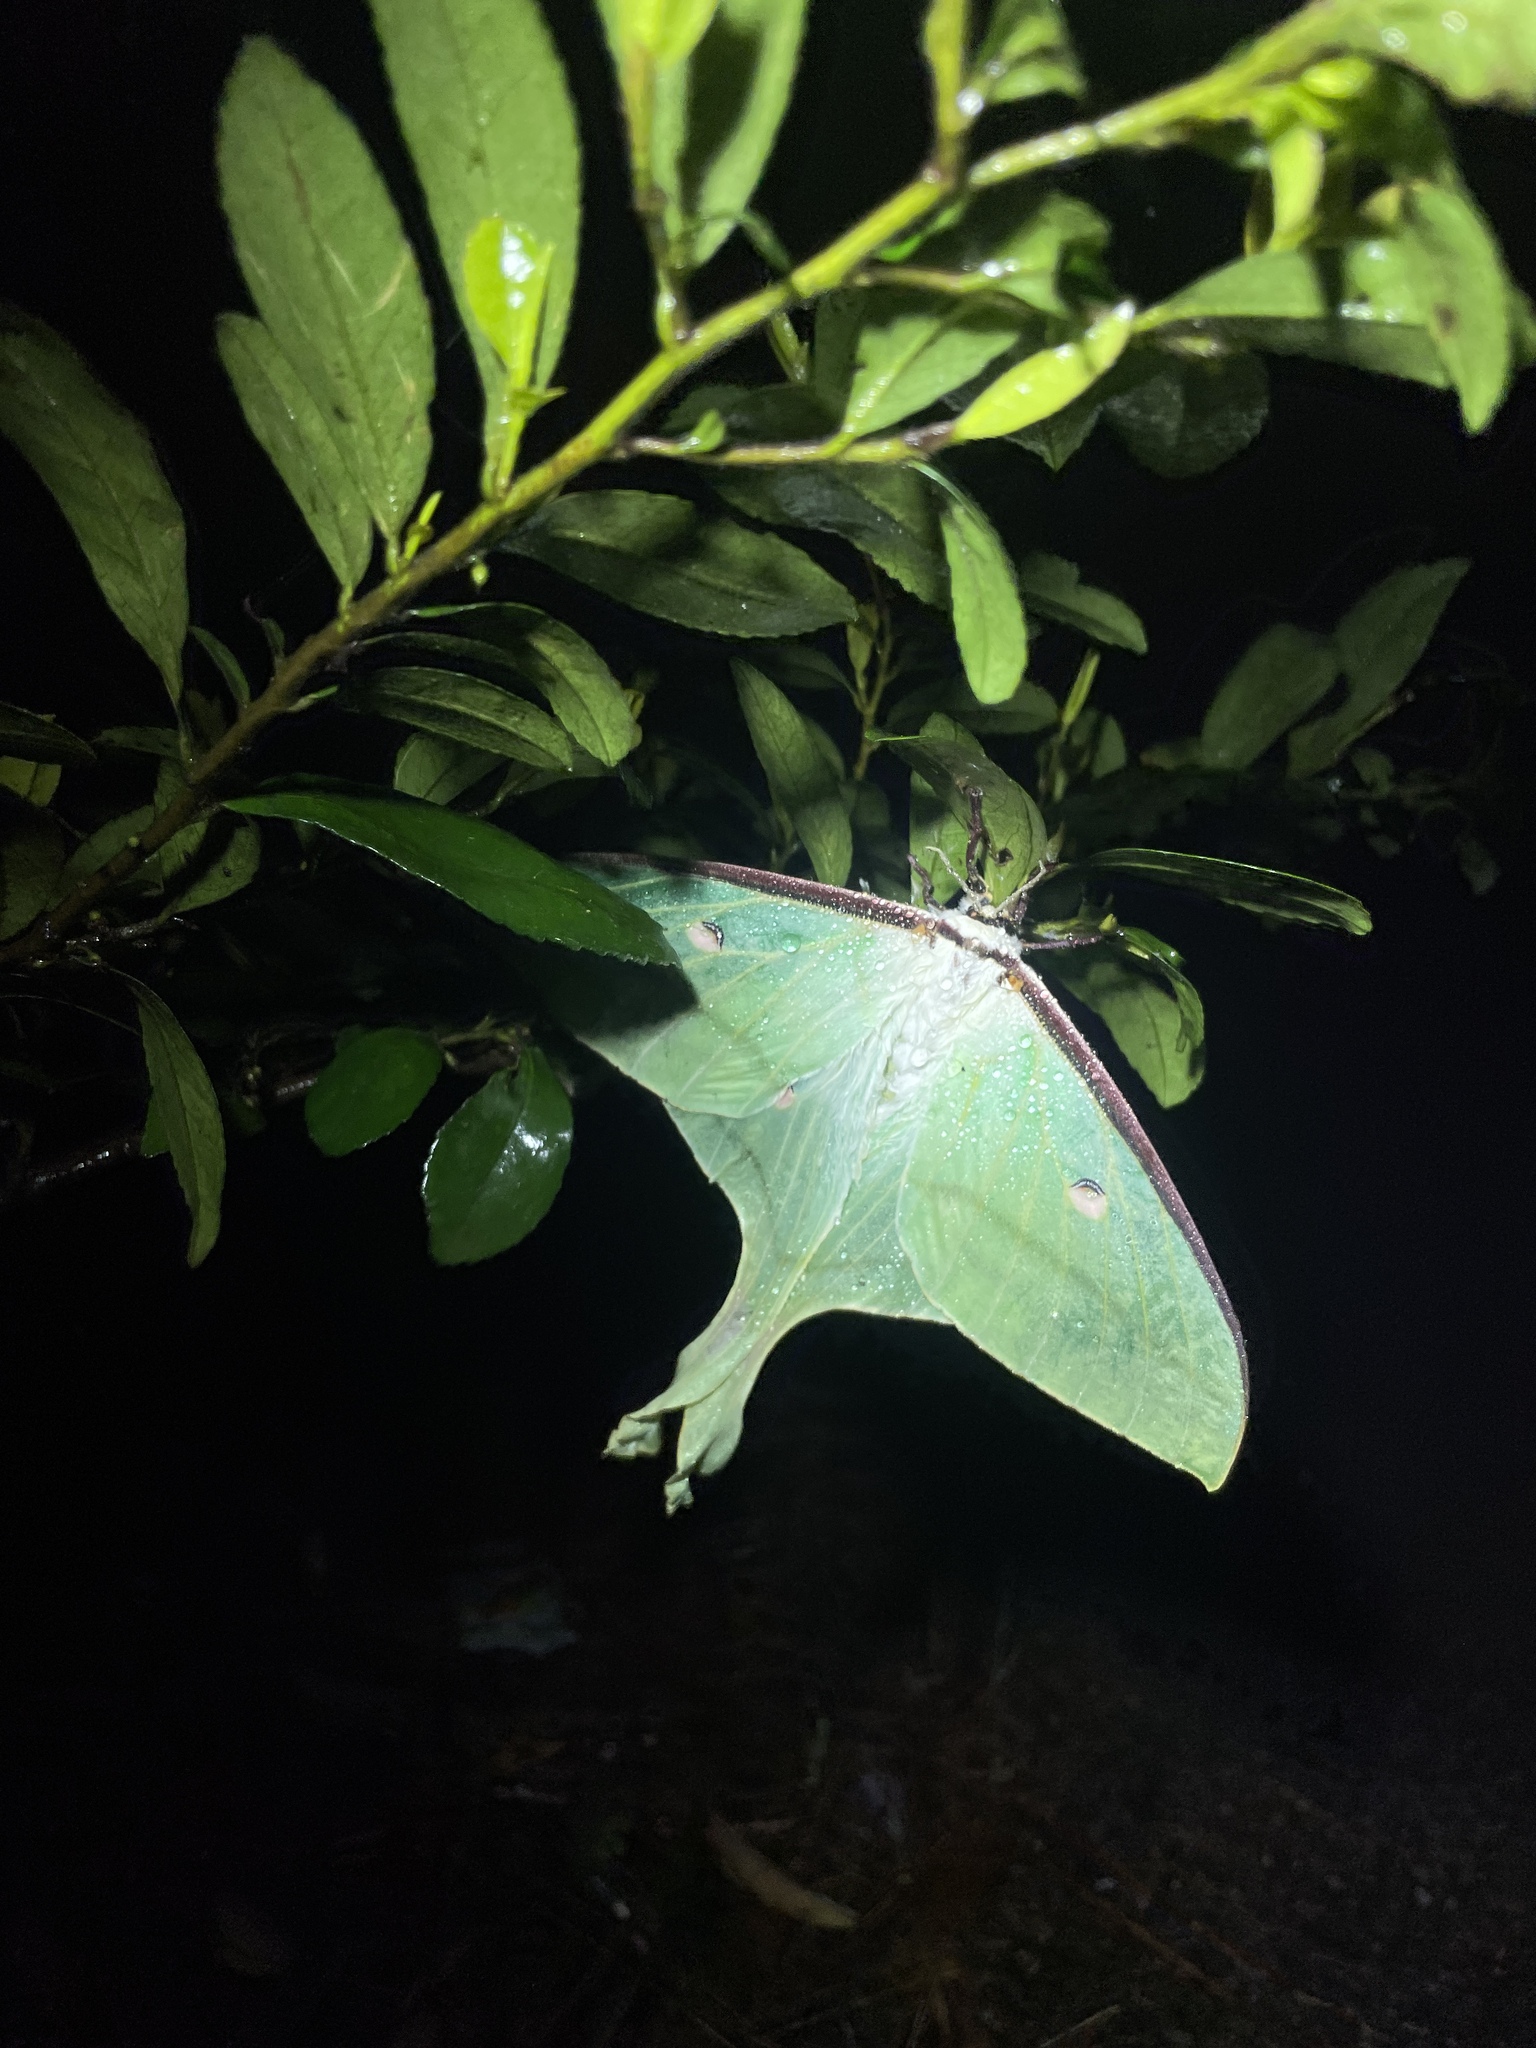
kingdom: Animalia
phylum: Arthropoda
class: Insecta
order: Lepidoptera
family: Saturniidae
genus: Actias
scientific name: Actias ningpoana
